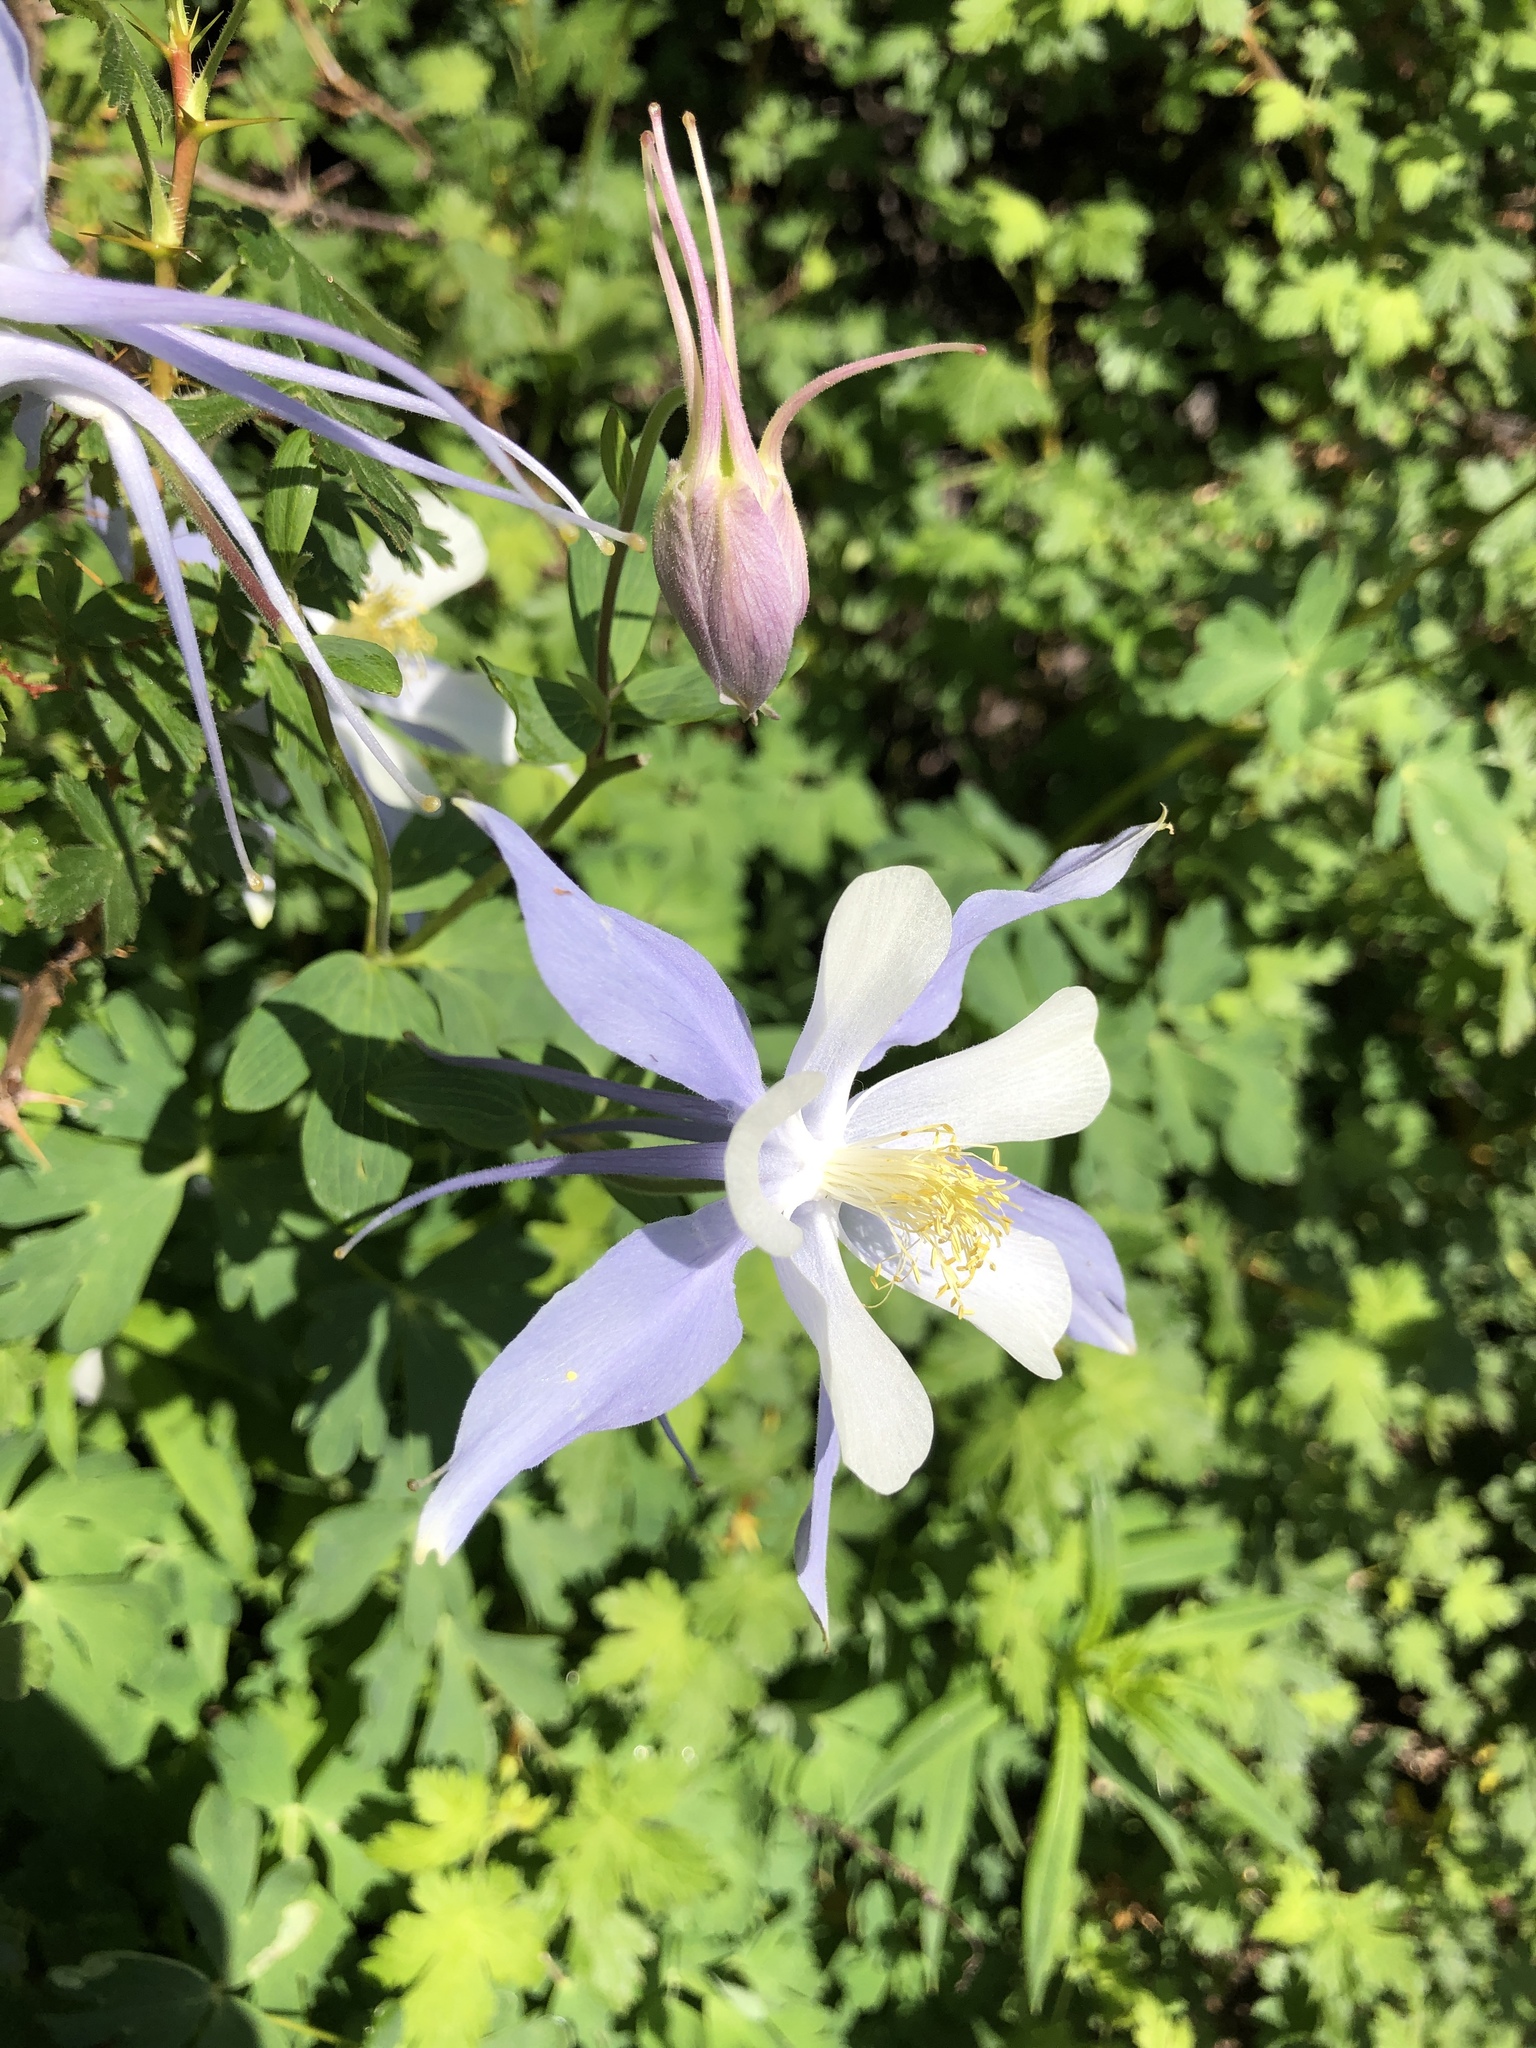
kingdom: Plantae
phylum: Tracheophyta
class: Magnoliopsida
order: Ranunculales
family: Ranunculaceae
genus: Aquilegia
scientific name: Aquilegia coerulea
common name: Rocky mountain columbine
